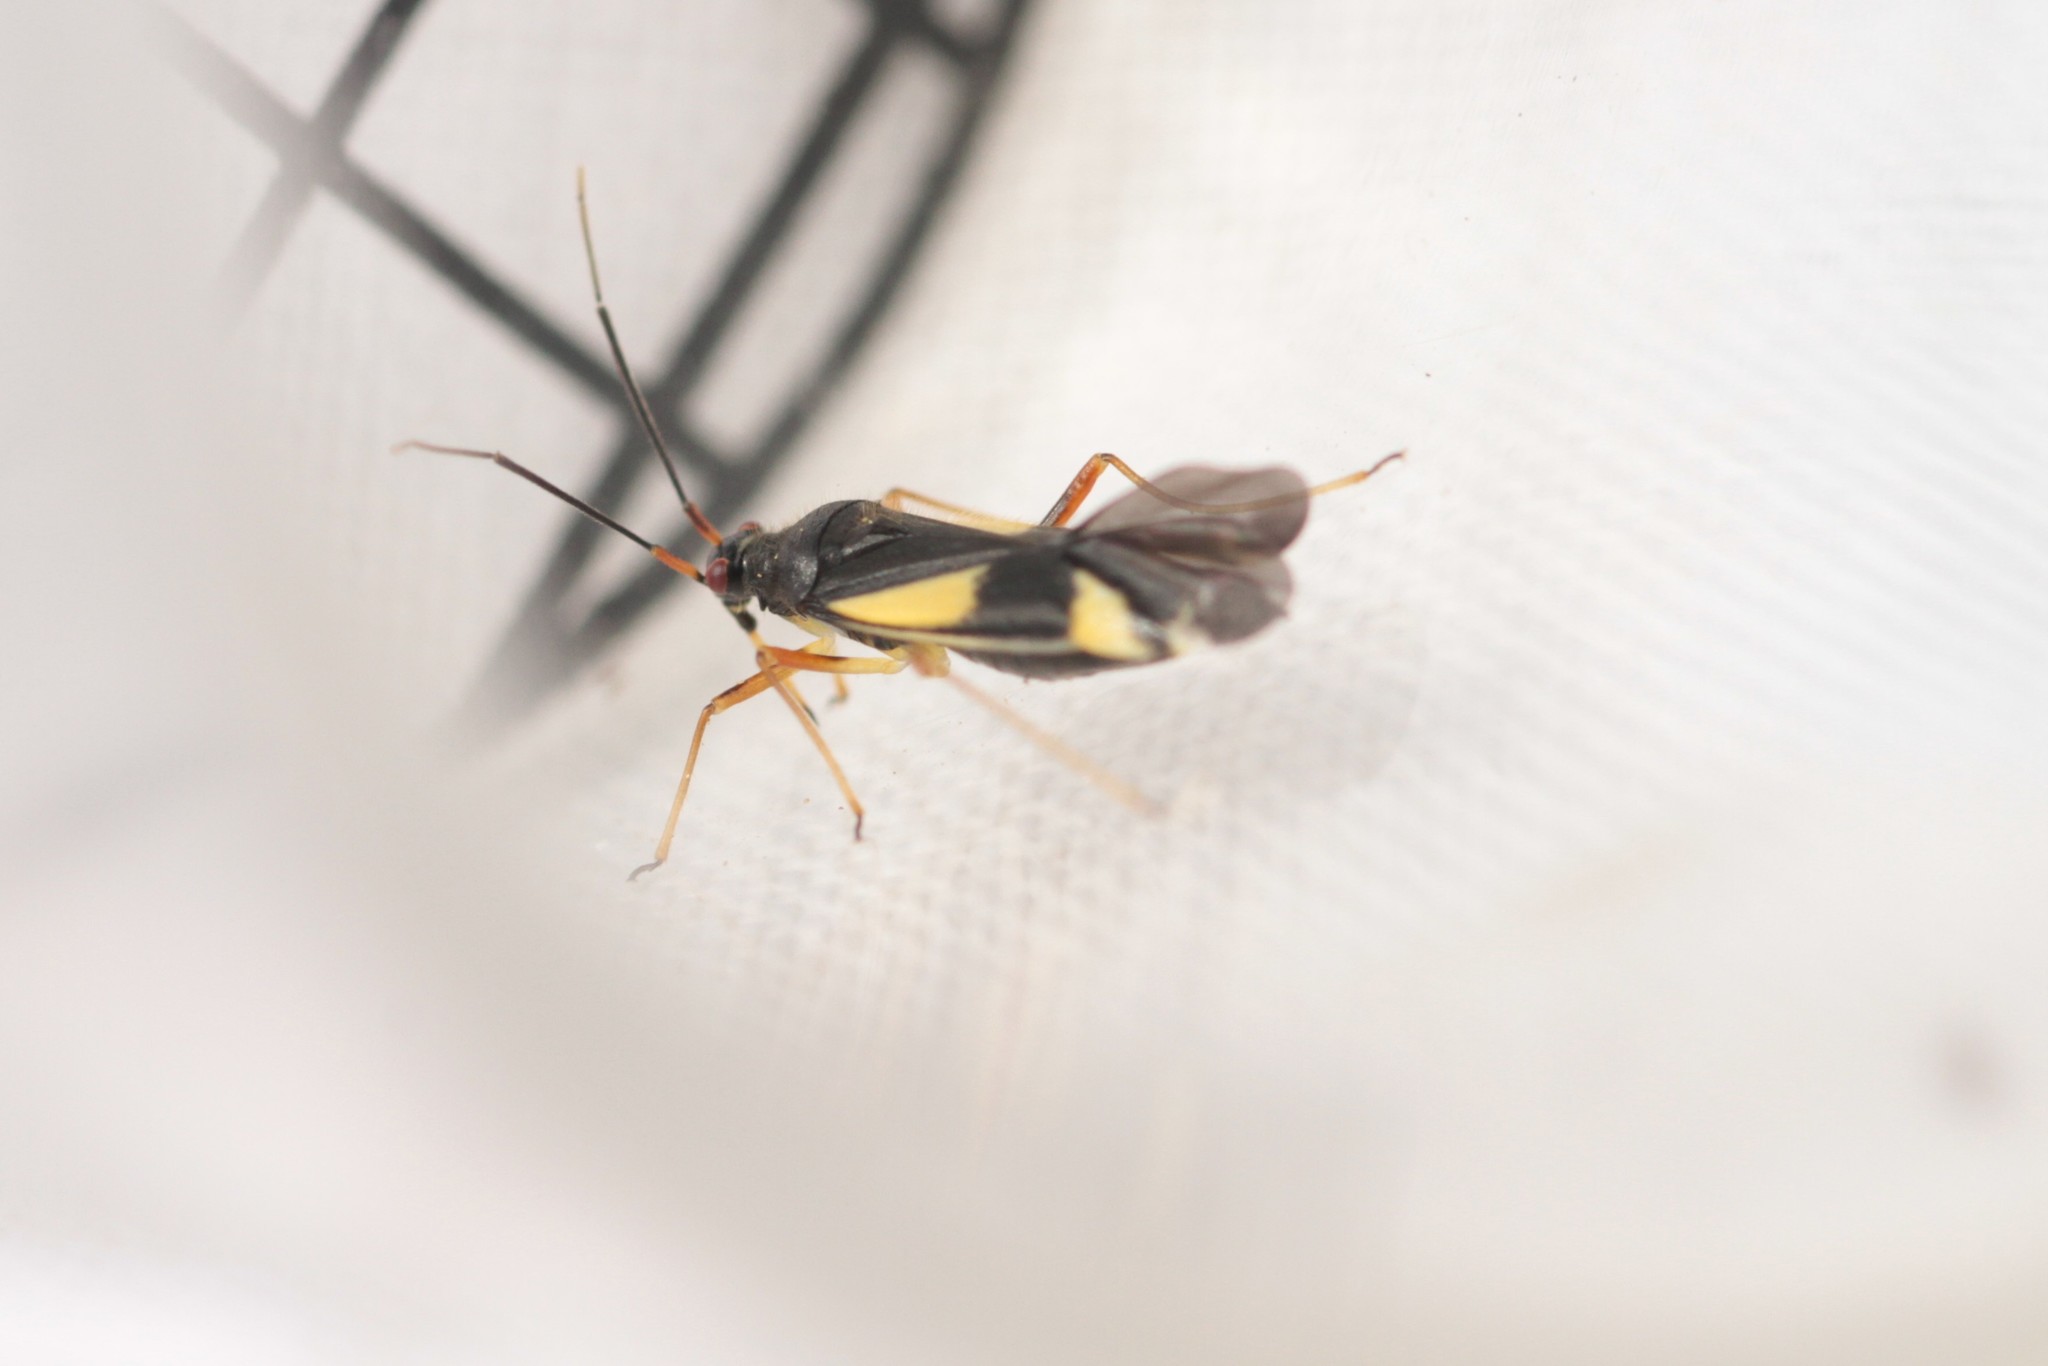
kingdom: Animalia
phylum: Arthropoda
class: Insecta
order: Hemiptera
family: Miridae
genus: Dryophilocoris
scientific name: Dryophilocoris flavoquadrimaculatus
